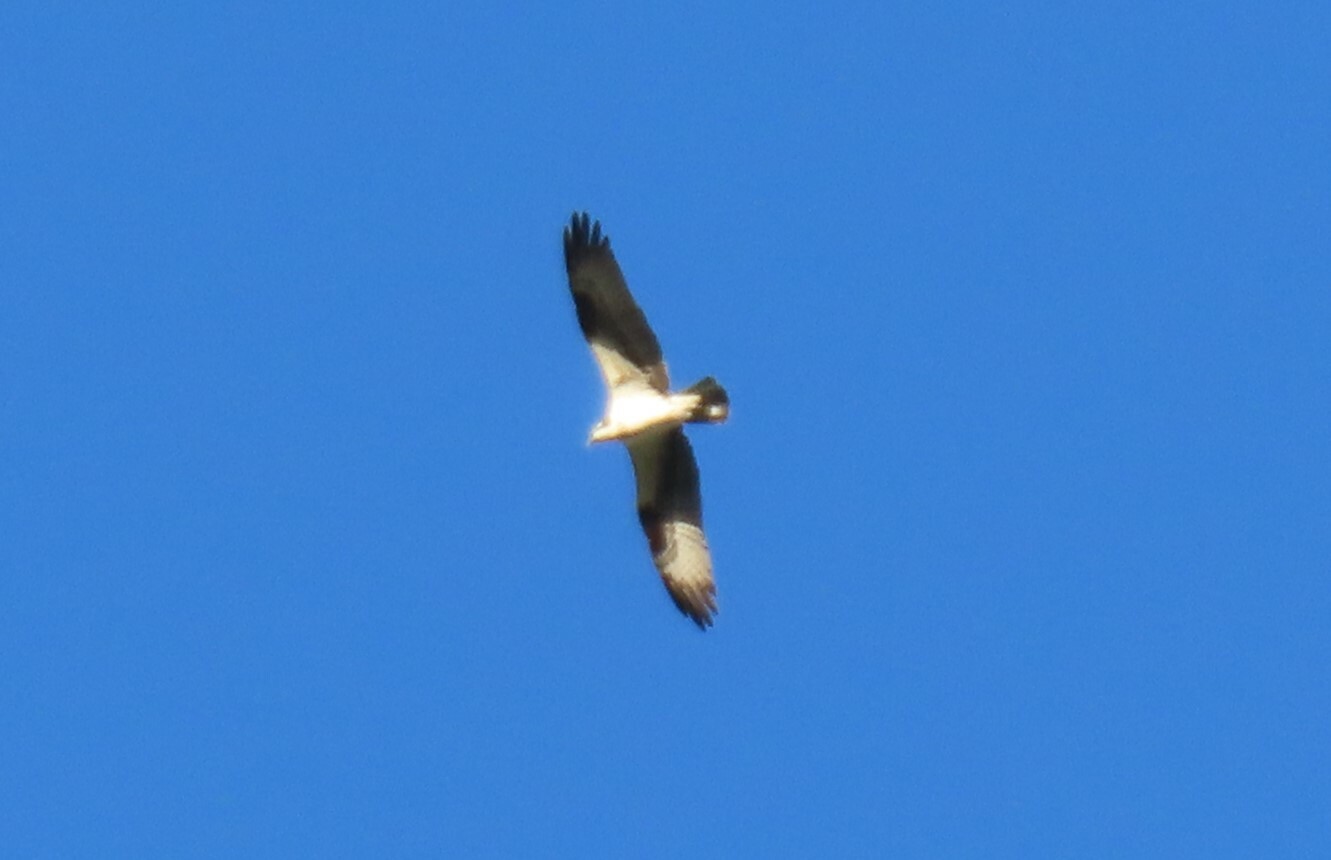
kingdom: Animalia
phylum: Chordata
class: Aves
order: Accipitriformes
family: Pandionidae
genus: Pandion
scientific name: Pandion haliaetus
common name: Osprey
